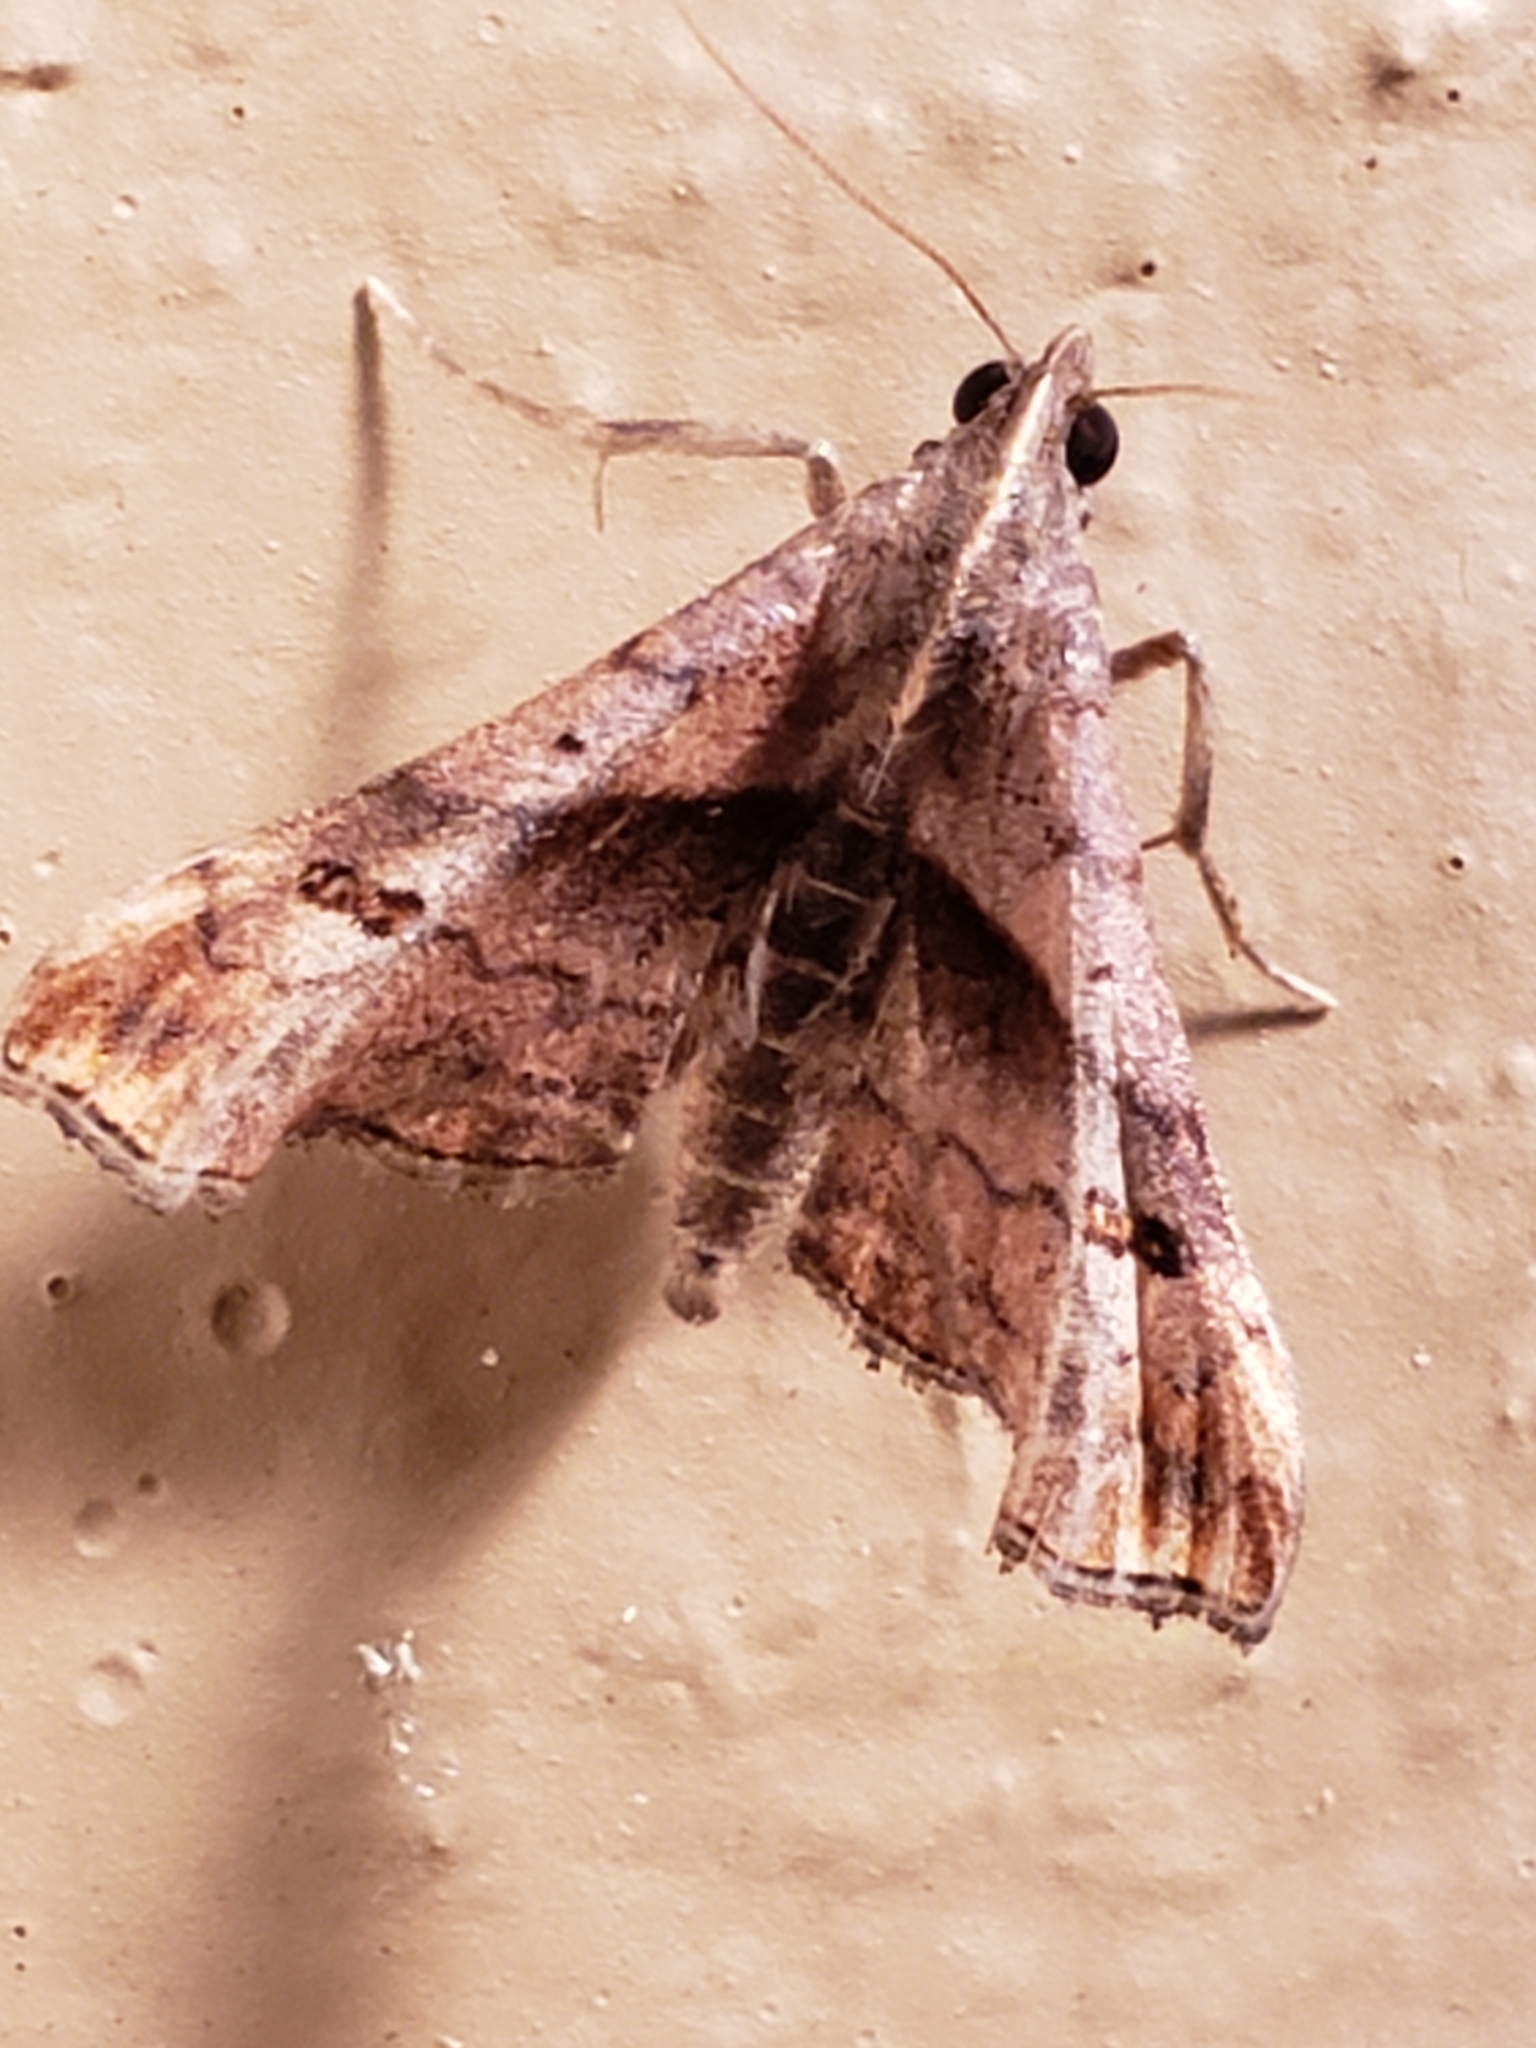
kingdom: Animalia
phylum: Arthropoda
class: Insecta
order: Lepidoptera
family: Erebidae
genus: Palthis
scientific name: Palthis angulalis
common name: Dark-spotted palthis moth
